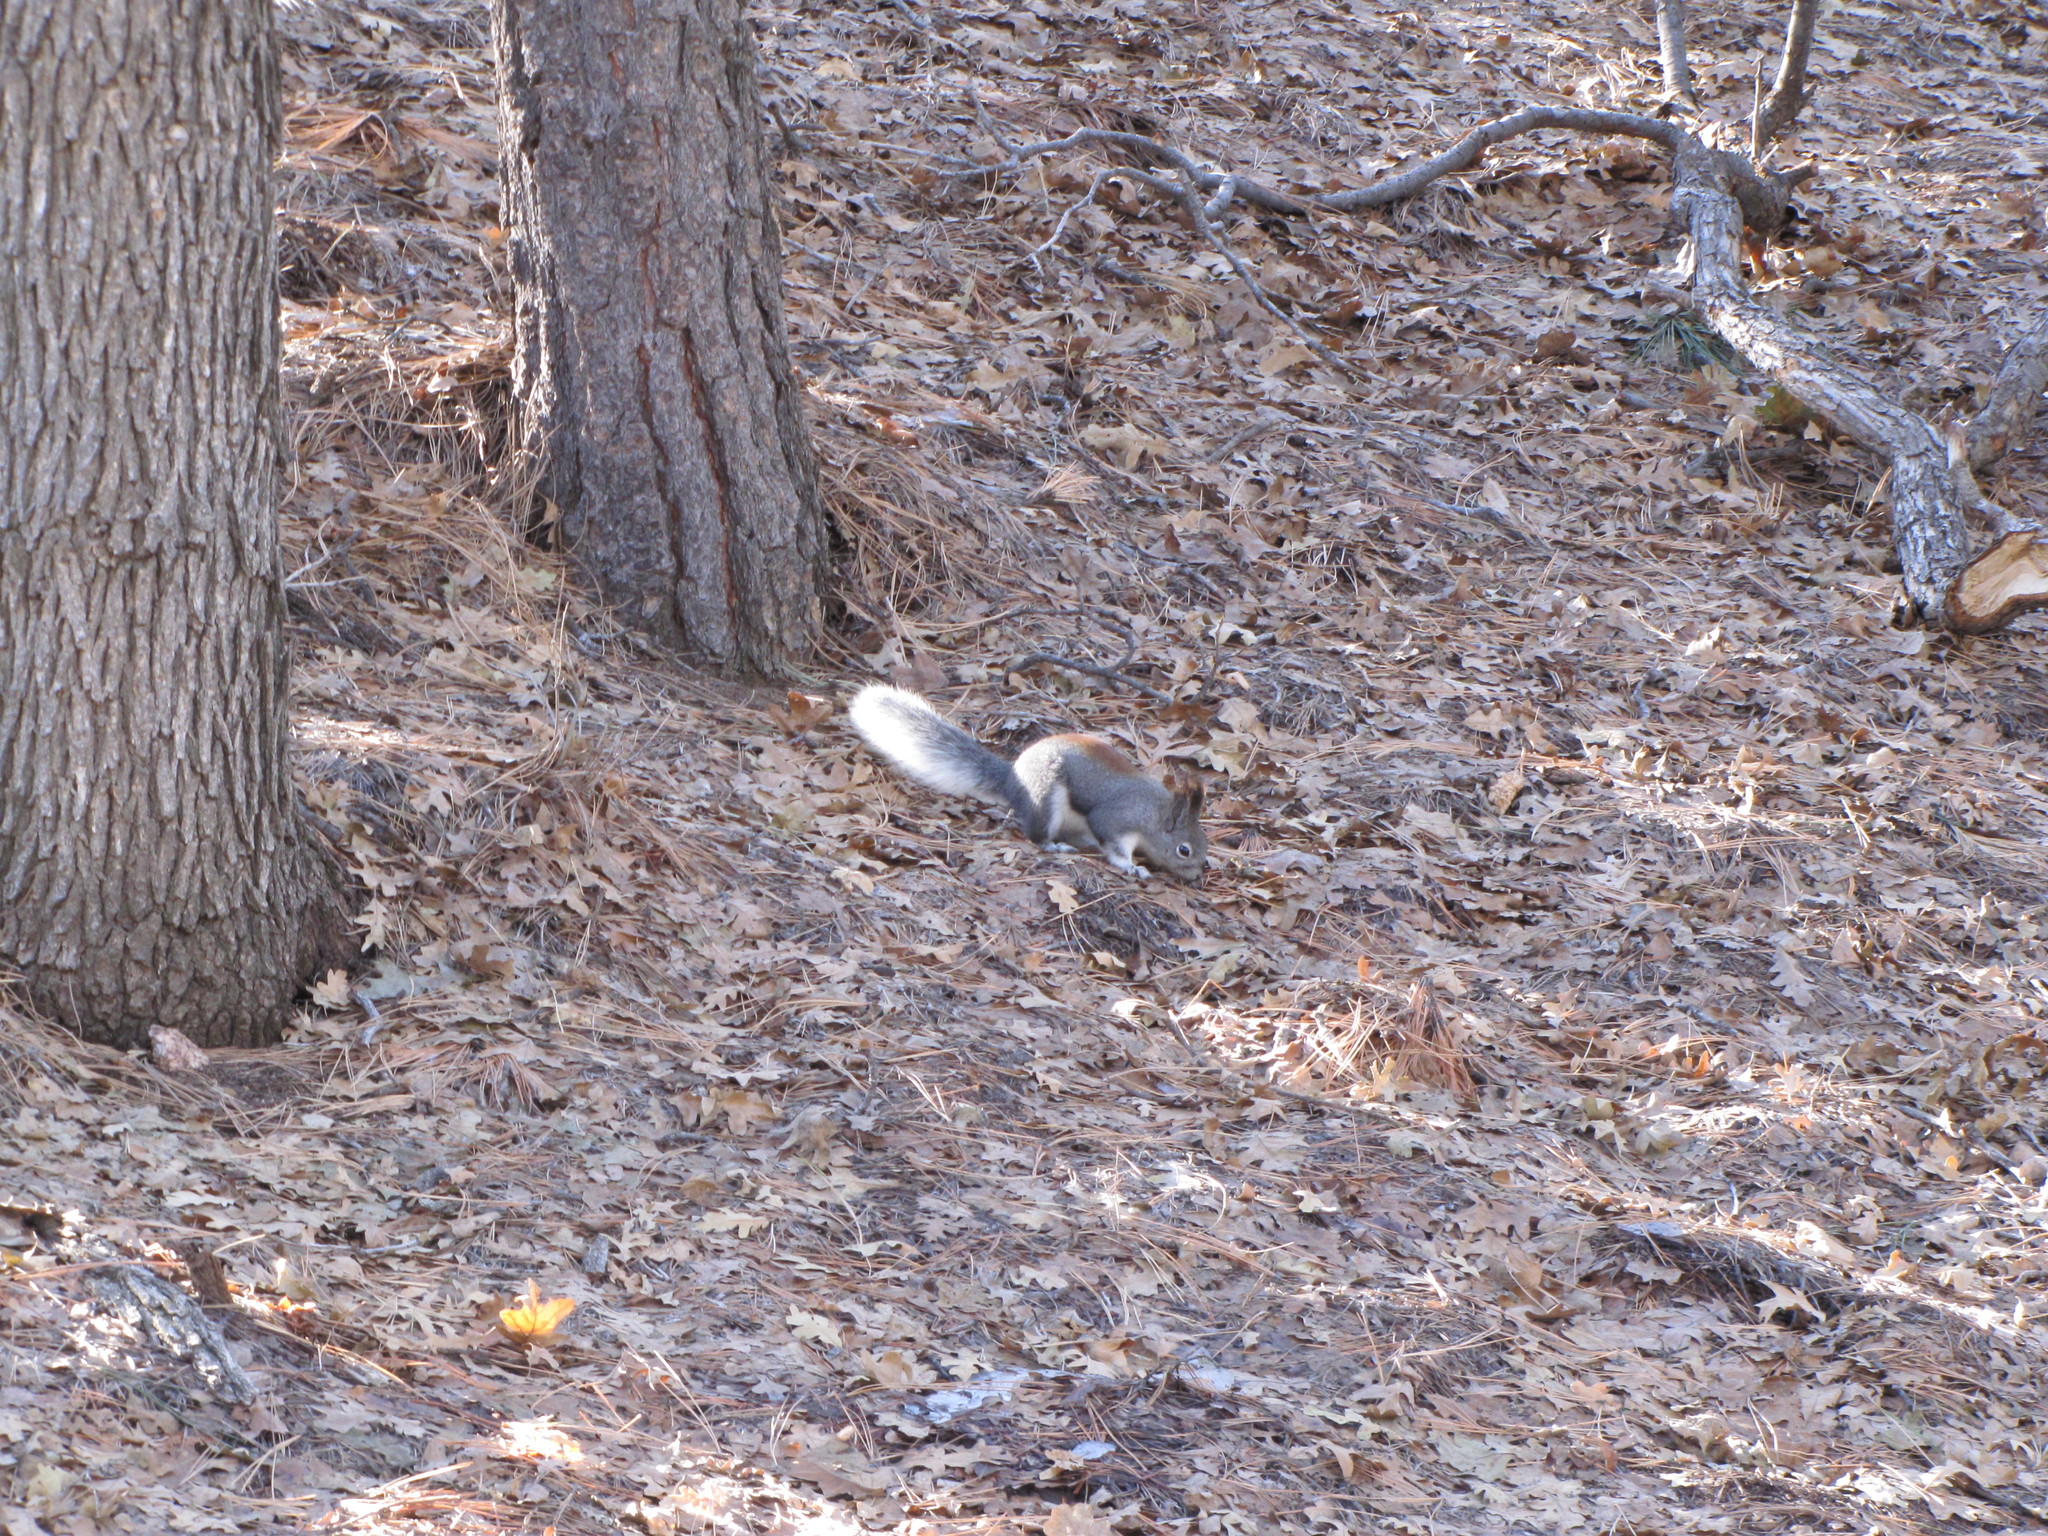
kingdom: Animalia
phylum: Chordata
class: Mammalia
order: Rodentia
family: Sciuridae
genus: Sciurus
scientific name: Sciurus aberti
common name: Abert's squirrel
